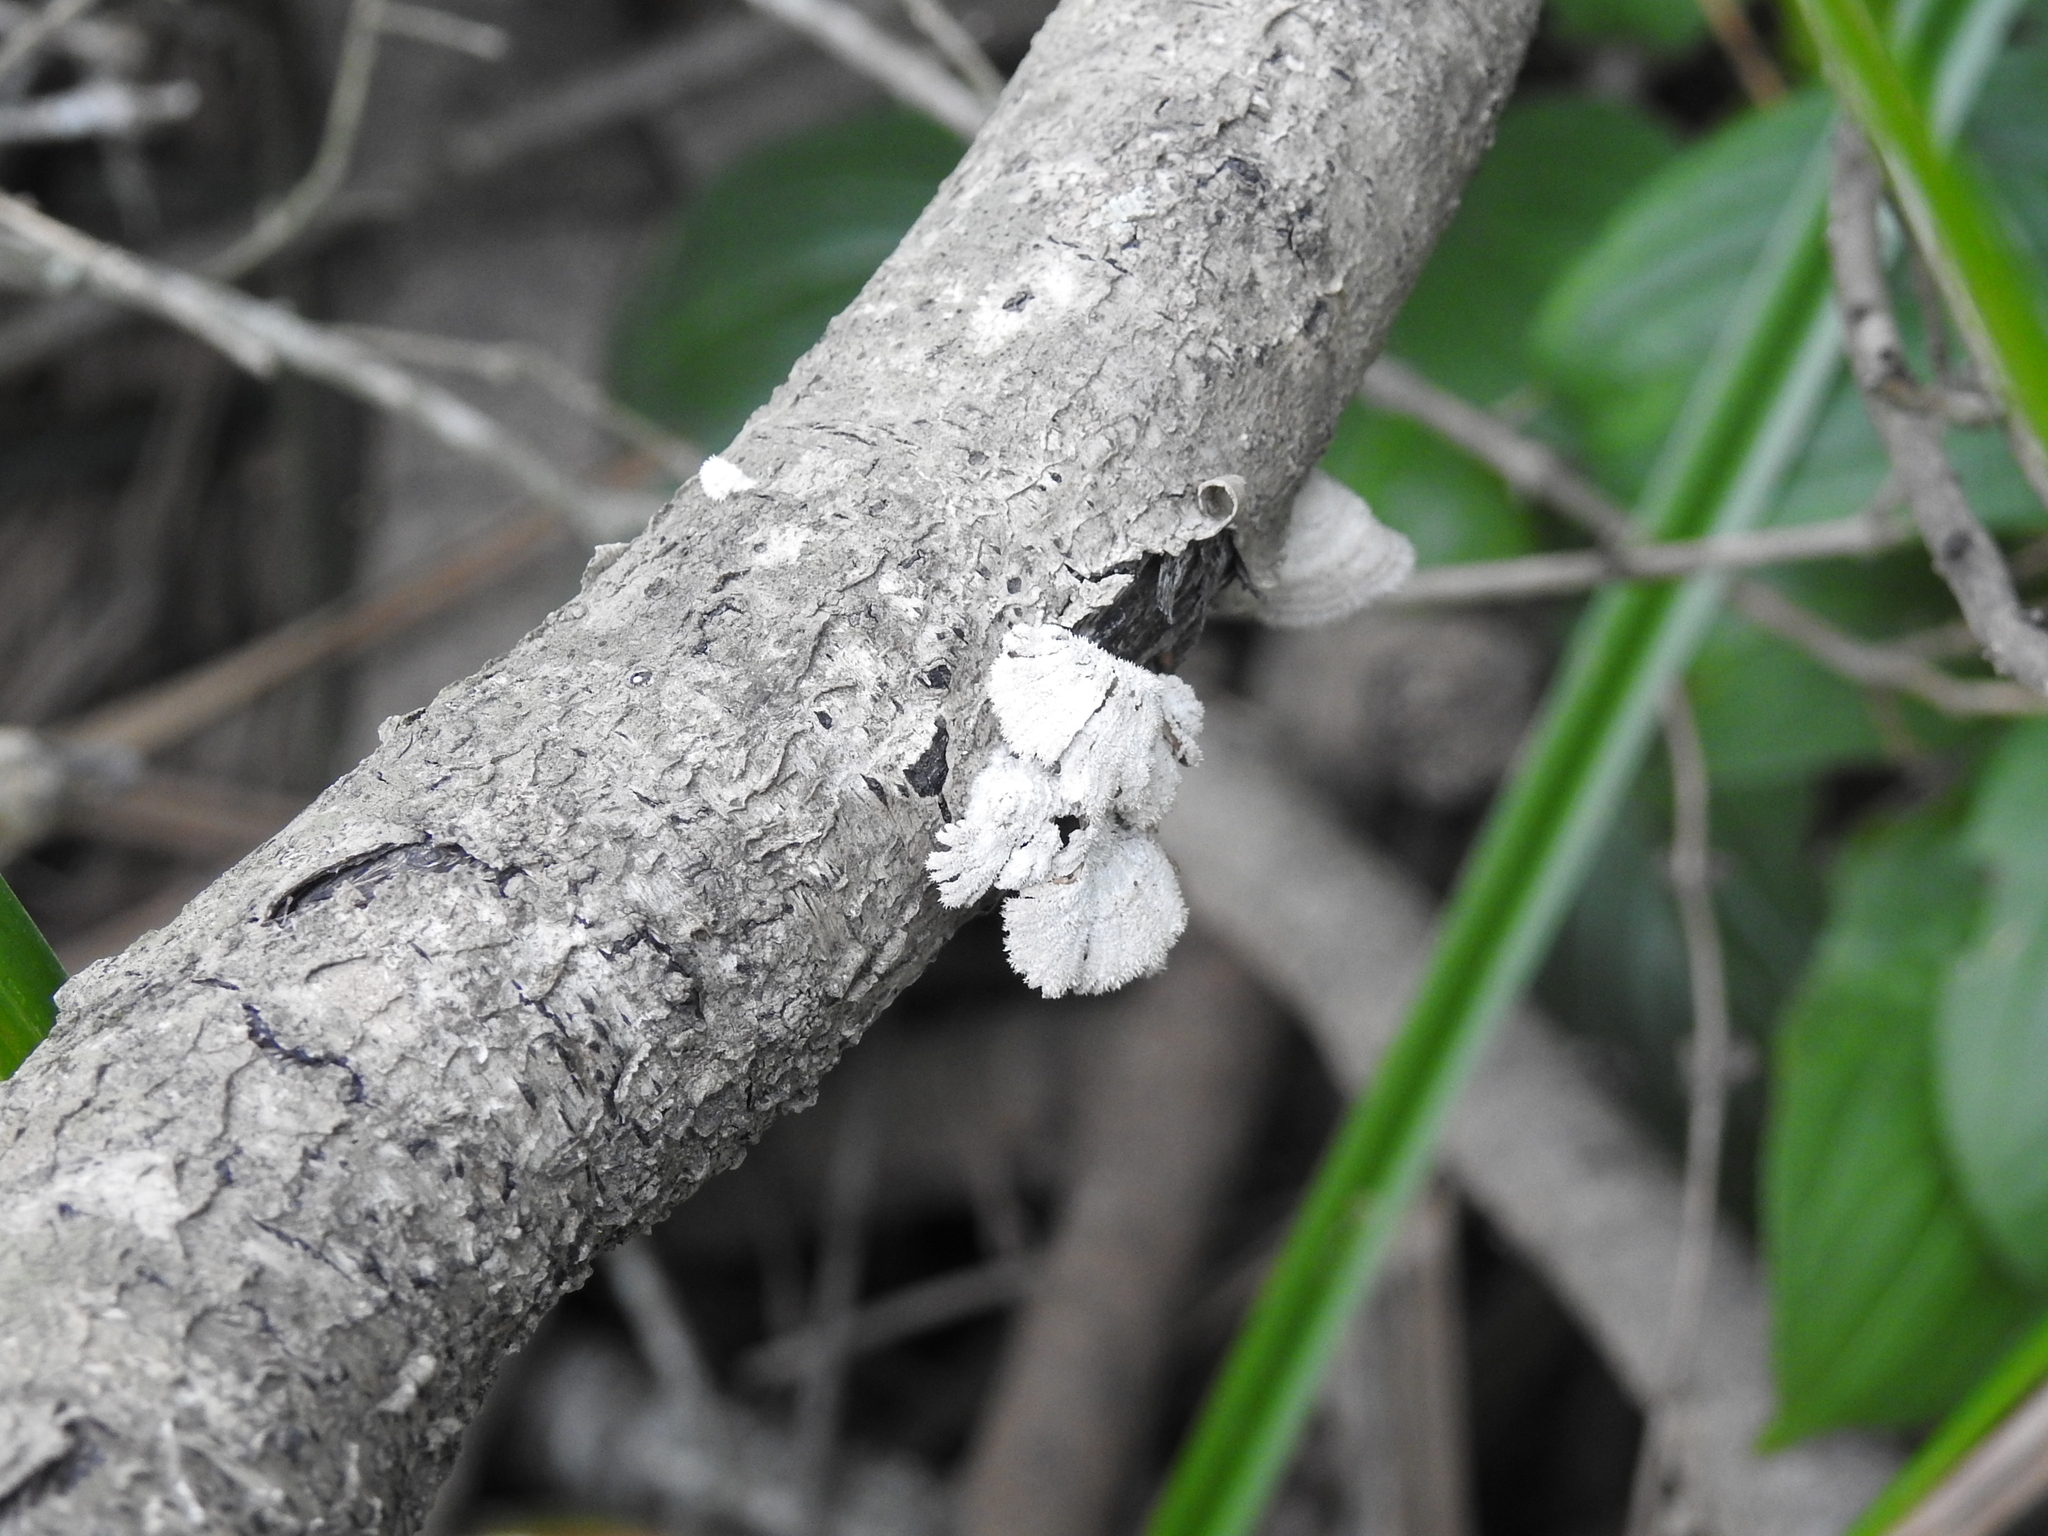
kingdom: Fungi
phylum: Basidiomycota
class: Agaricomycetes
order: Agaricales
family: Schizophyllaceae
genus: Schizophyllum
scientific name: Schizophyllum commune
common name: Common porecrust
